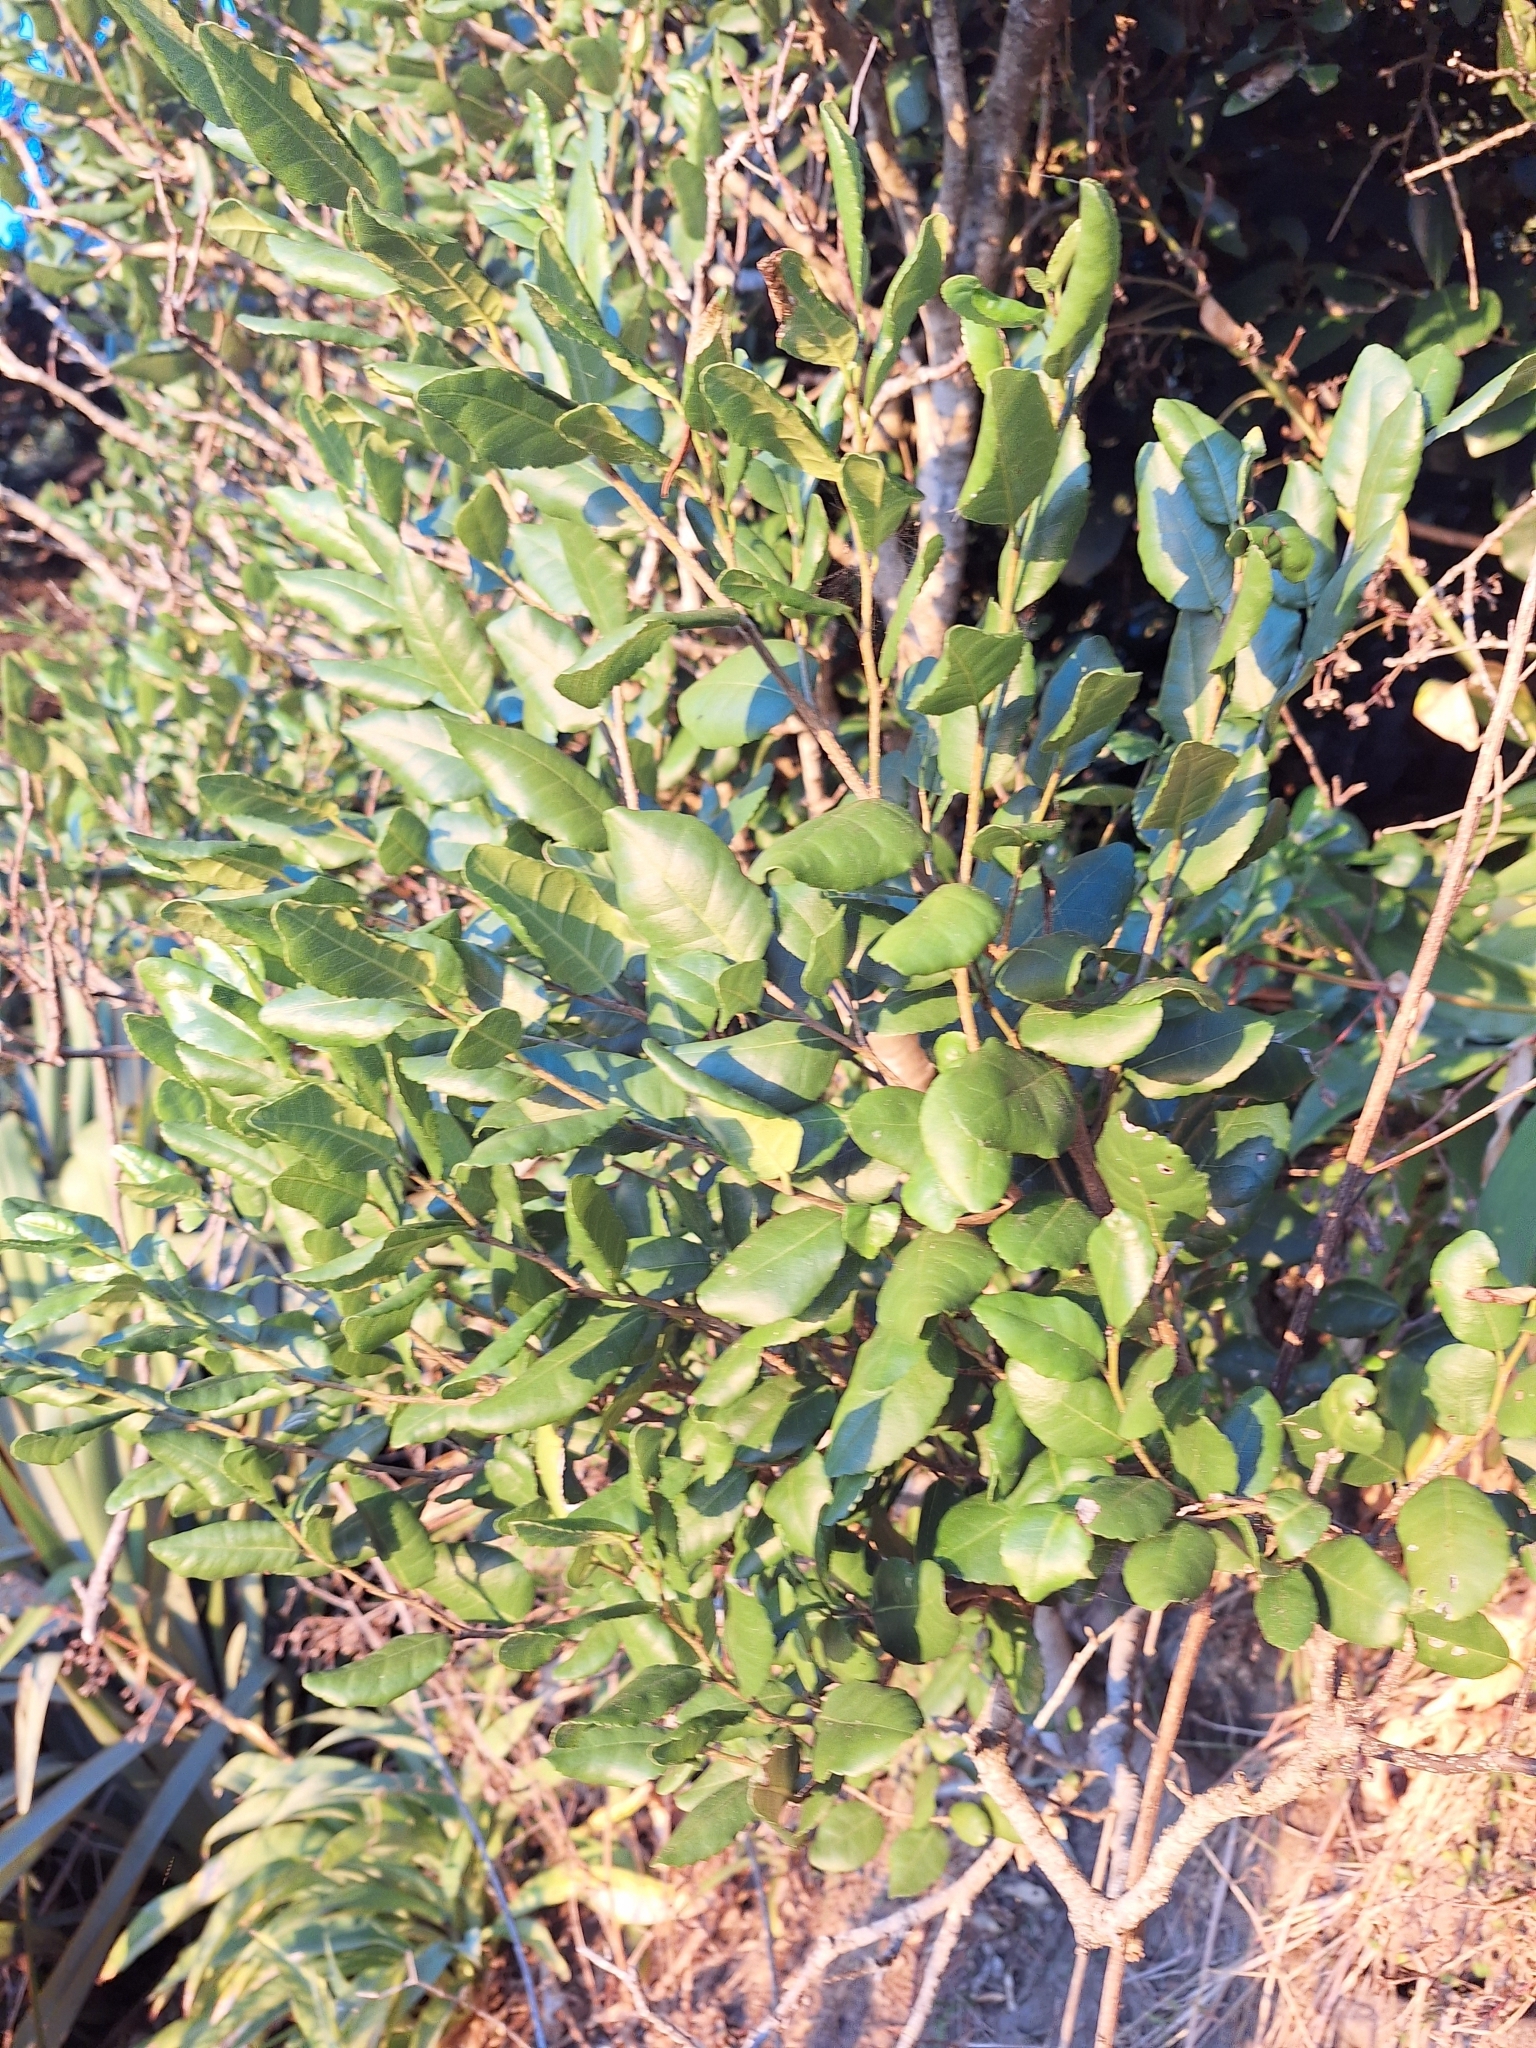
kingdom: Plantae
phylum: Tracheophyta
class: Magnoliopsida
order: Rosales
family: Moraceae
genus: Paratrophis
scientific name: Paratrophis banksii
